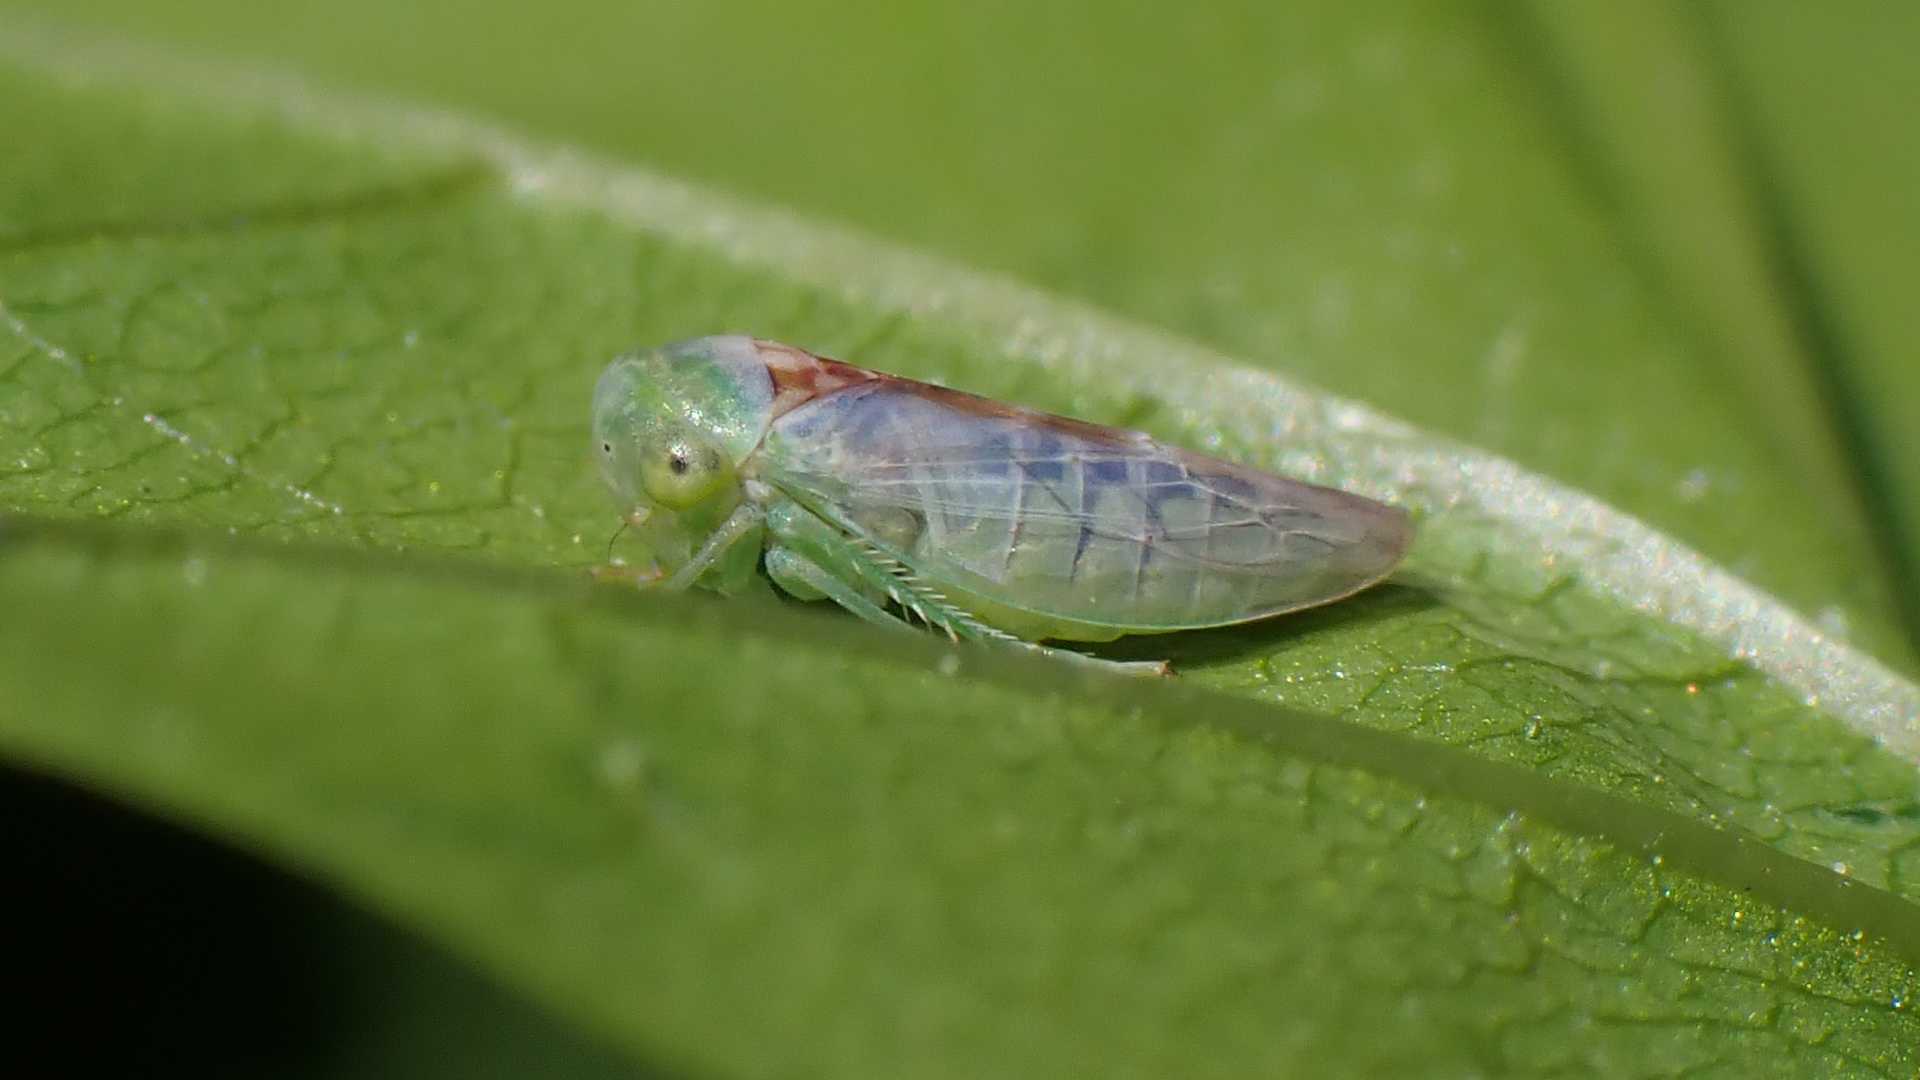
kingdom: Animalia
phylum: Arthropoda
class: Insecta
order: Hemiptera
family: Cicadellidae
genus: Viridicerus
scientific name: Viridicerus ustulatus
